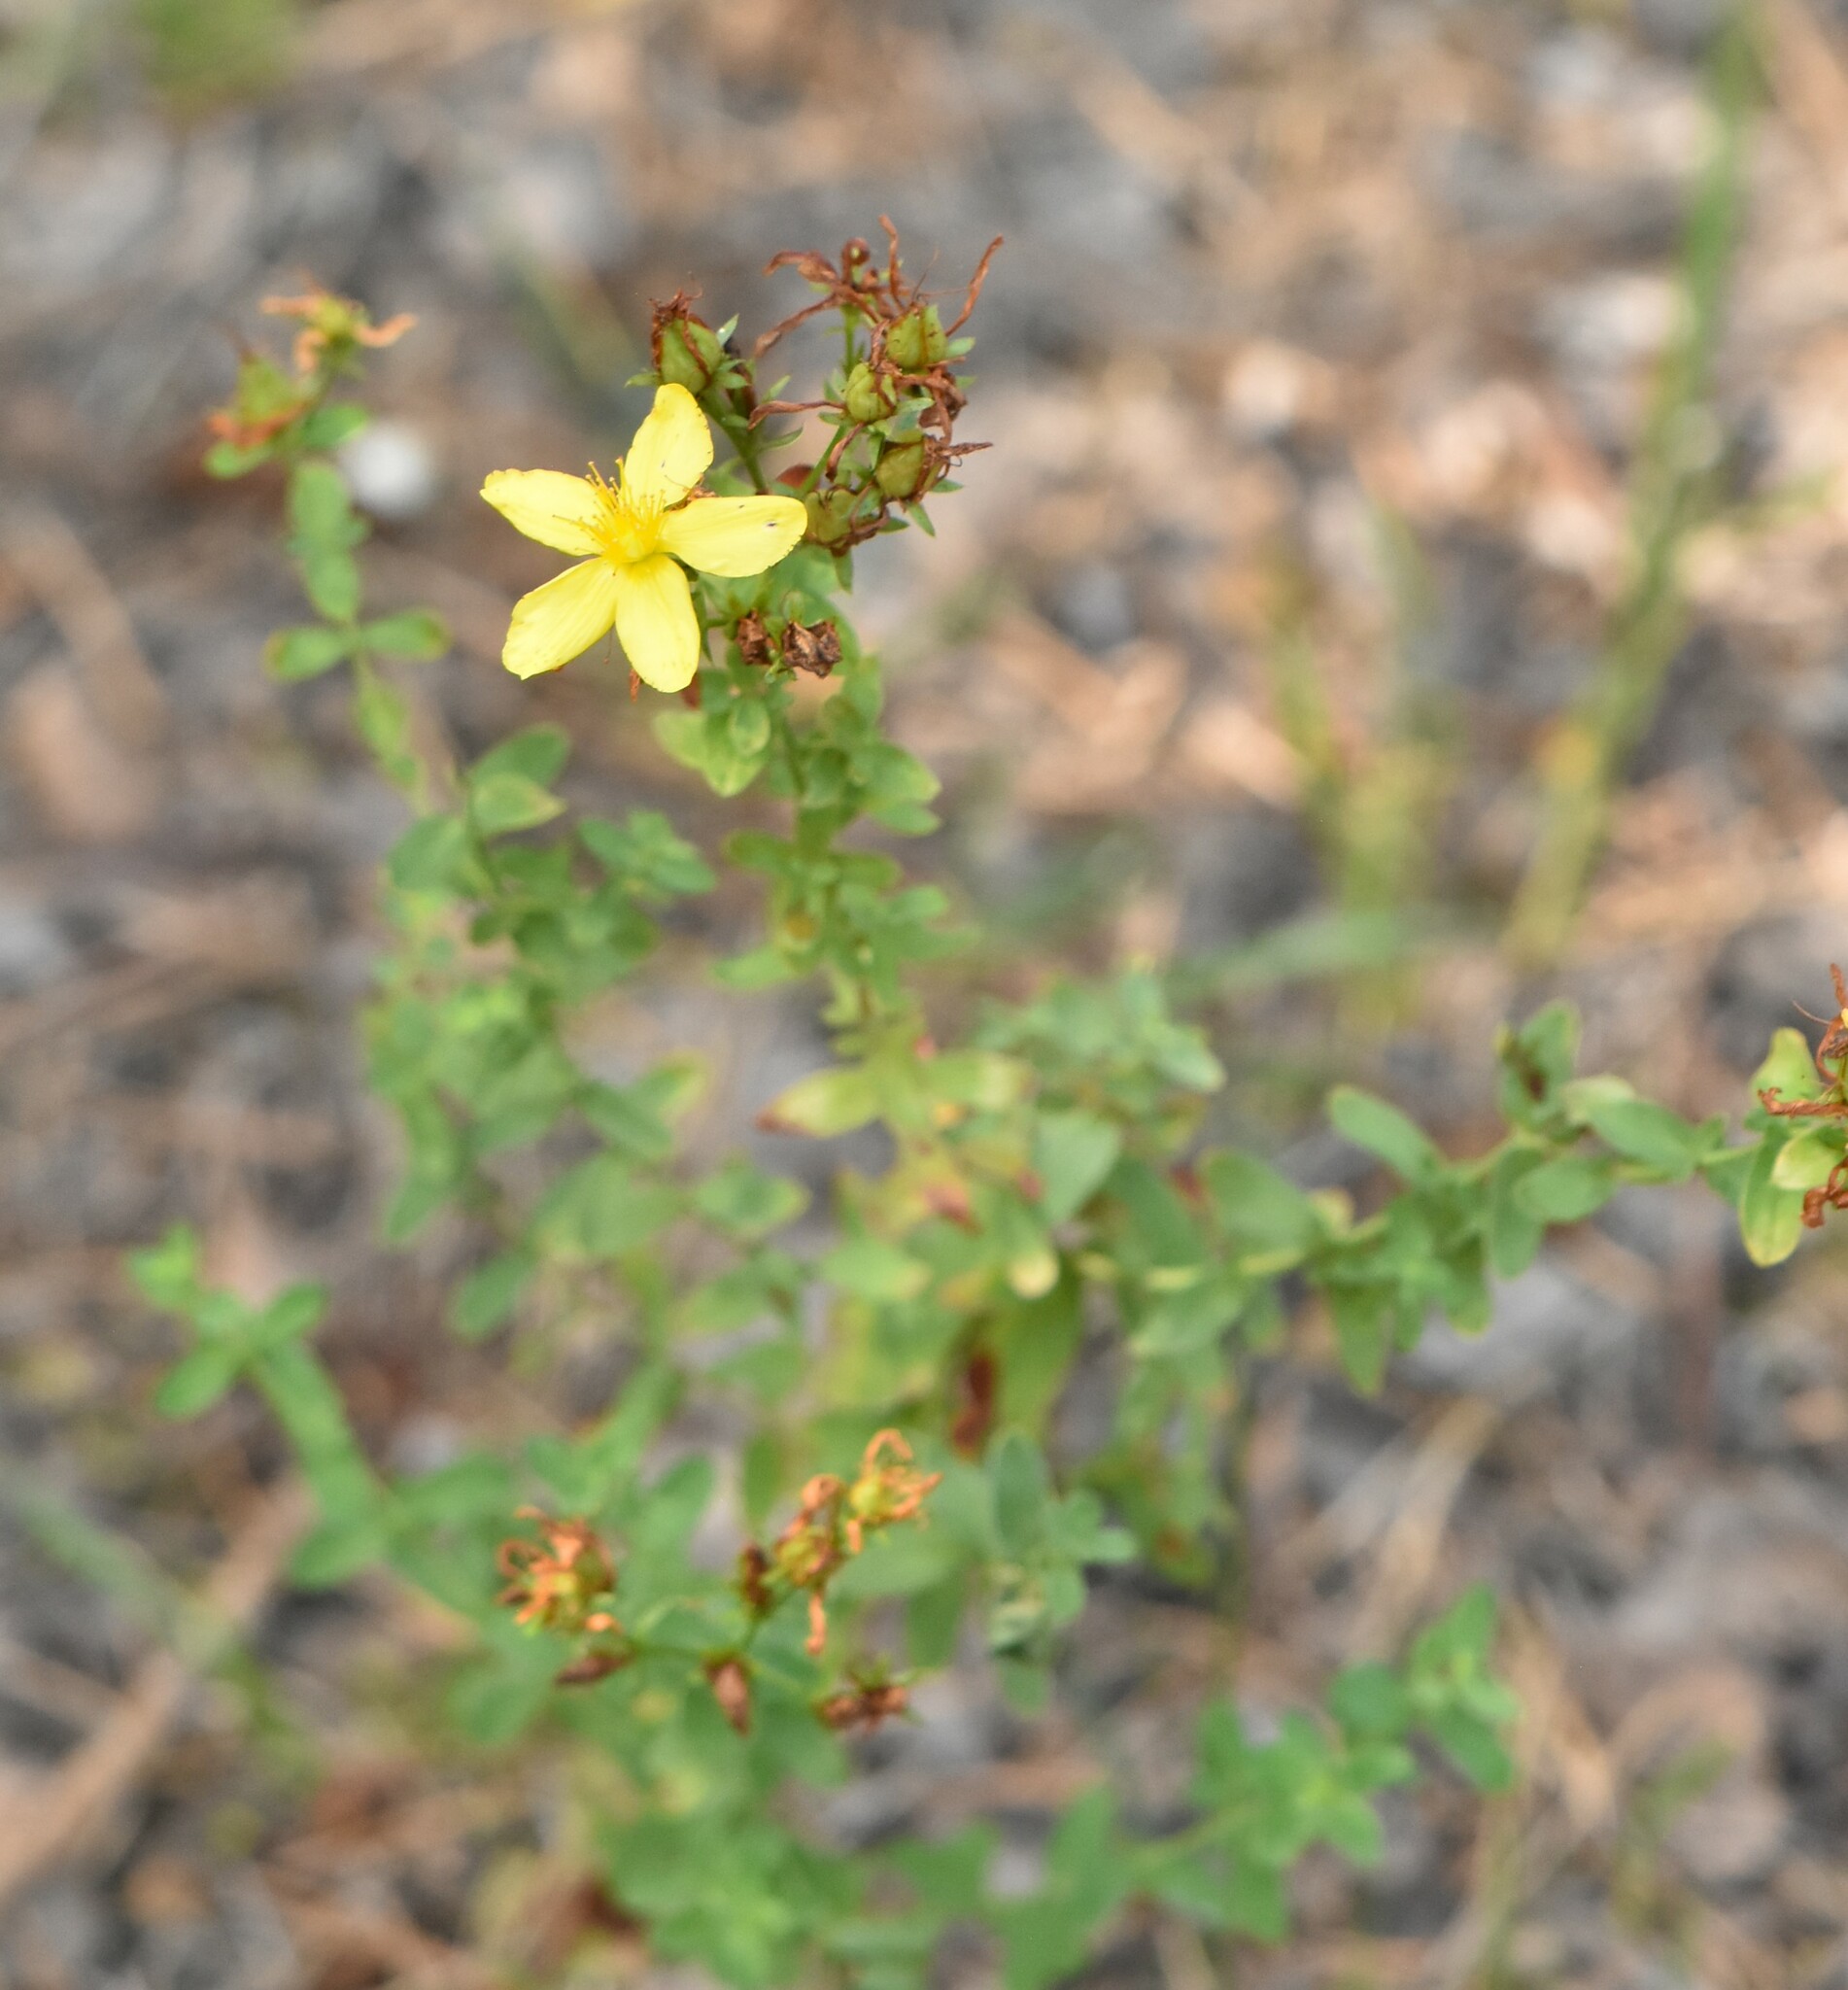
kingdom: Plantae
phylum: Tracheophyta
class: Magnoliopsida
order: Malpighiales
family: Hypericaceae
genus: Hypericum
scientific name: Hypericum perforatum
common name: Common st. johnswort
